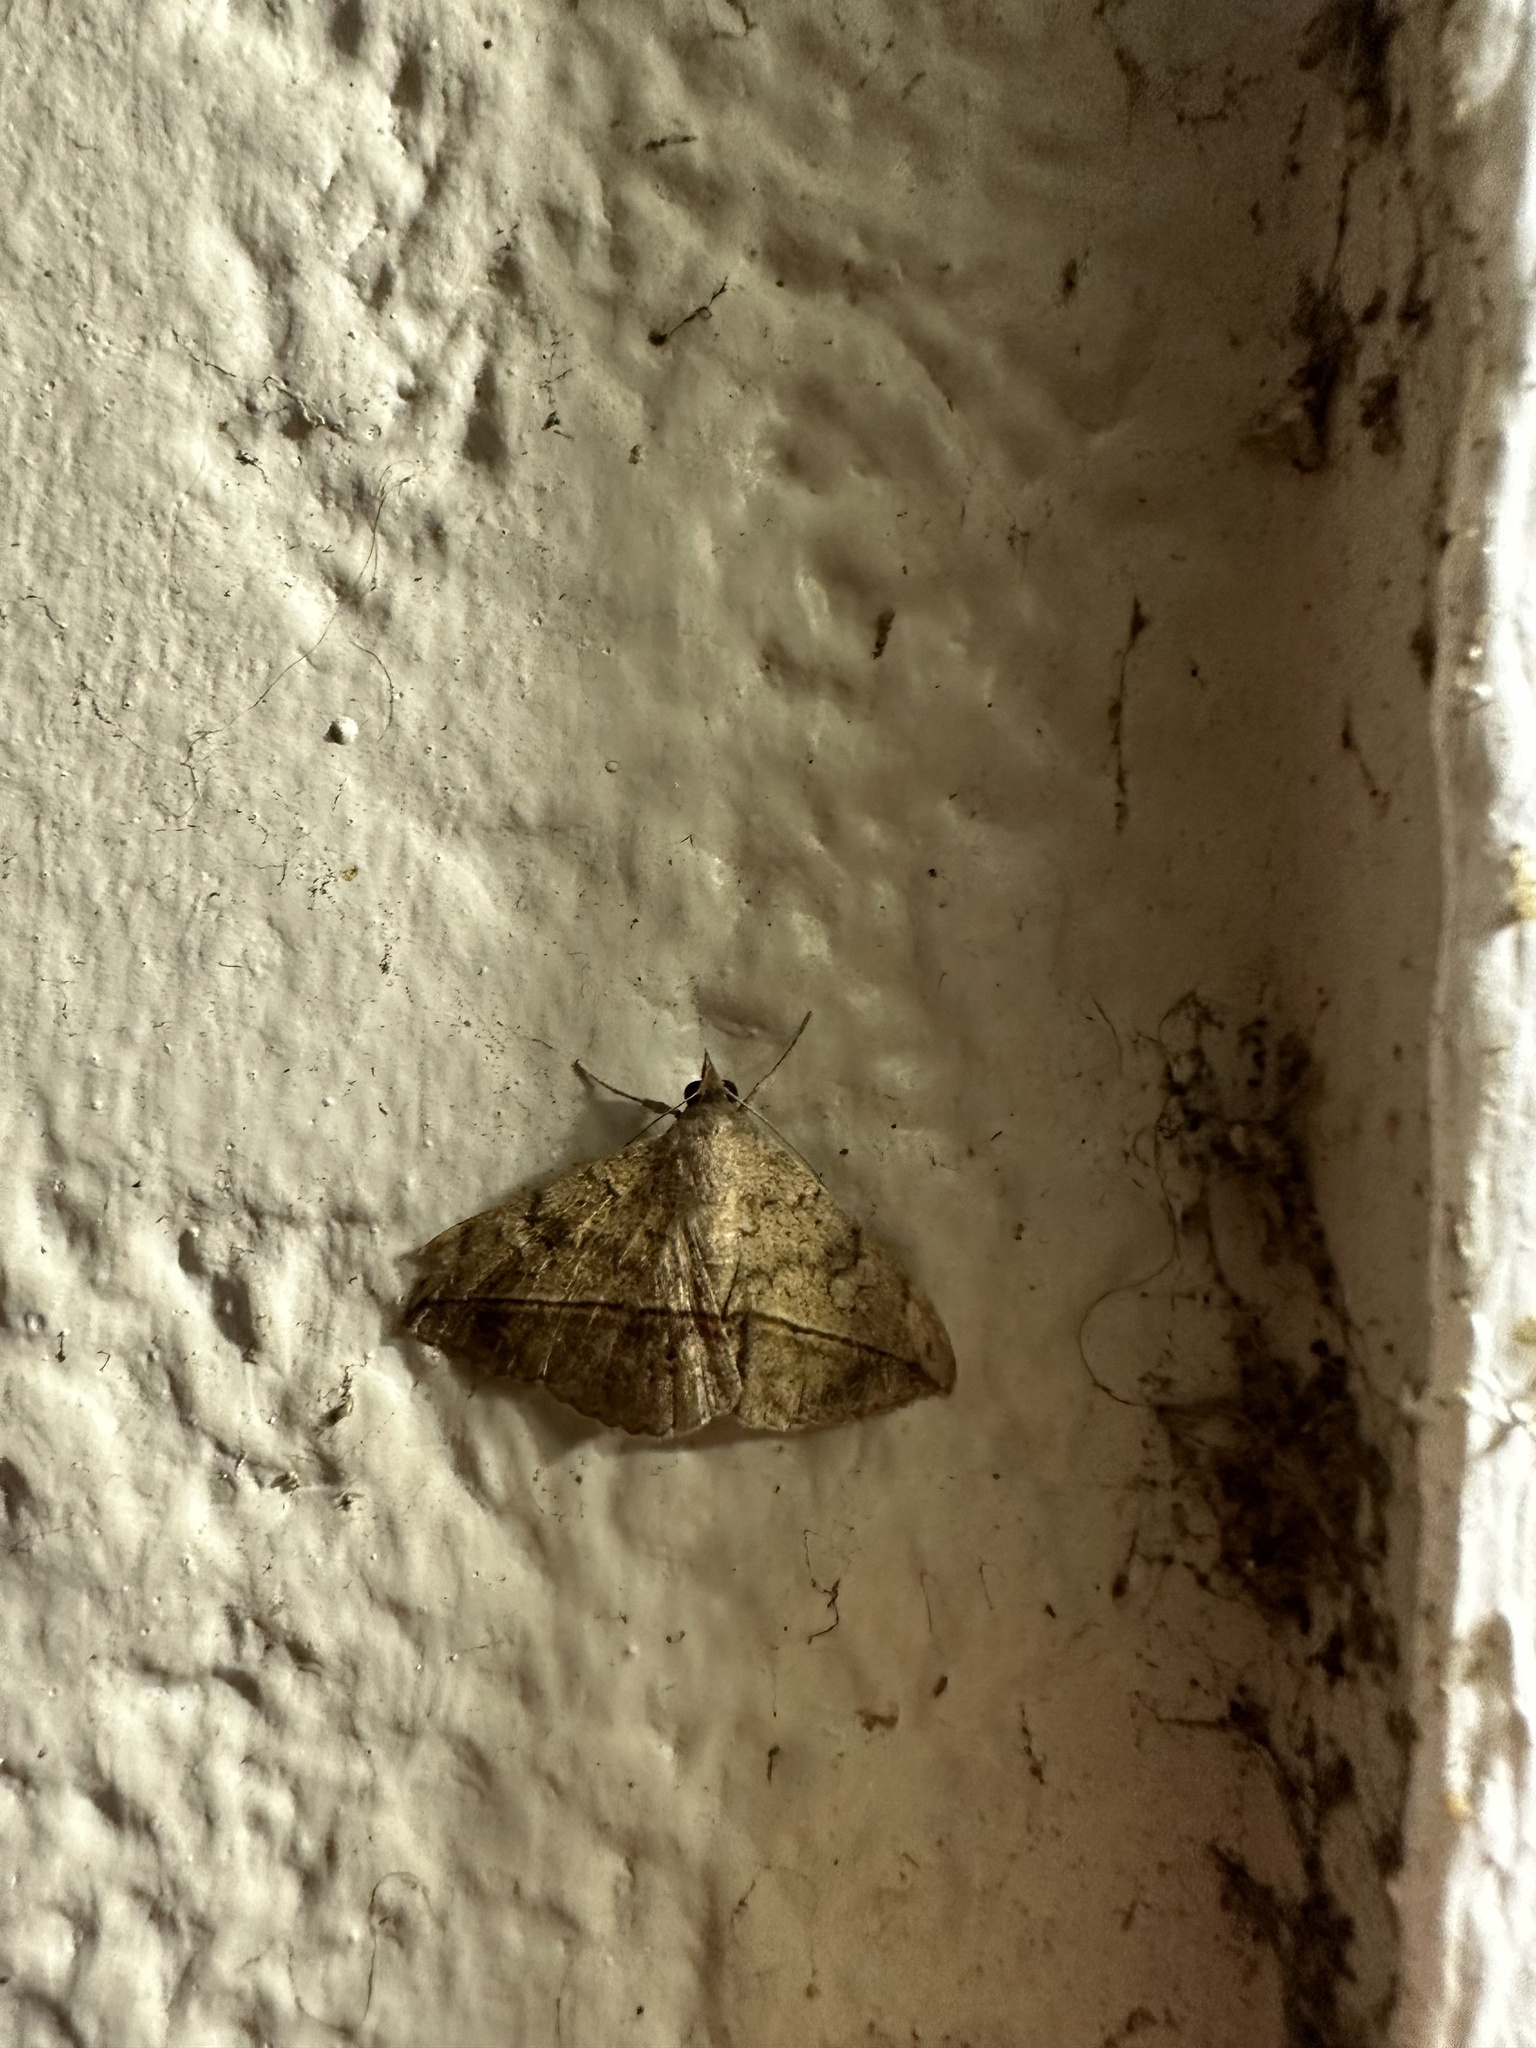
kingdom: Animalia
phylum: Arthropoda
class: Insecta
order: Lepidoptera
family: Erebidae
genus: Anticarsia
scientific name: Anticarsia gemmatalis
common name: Cutworm moth
